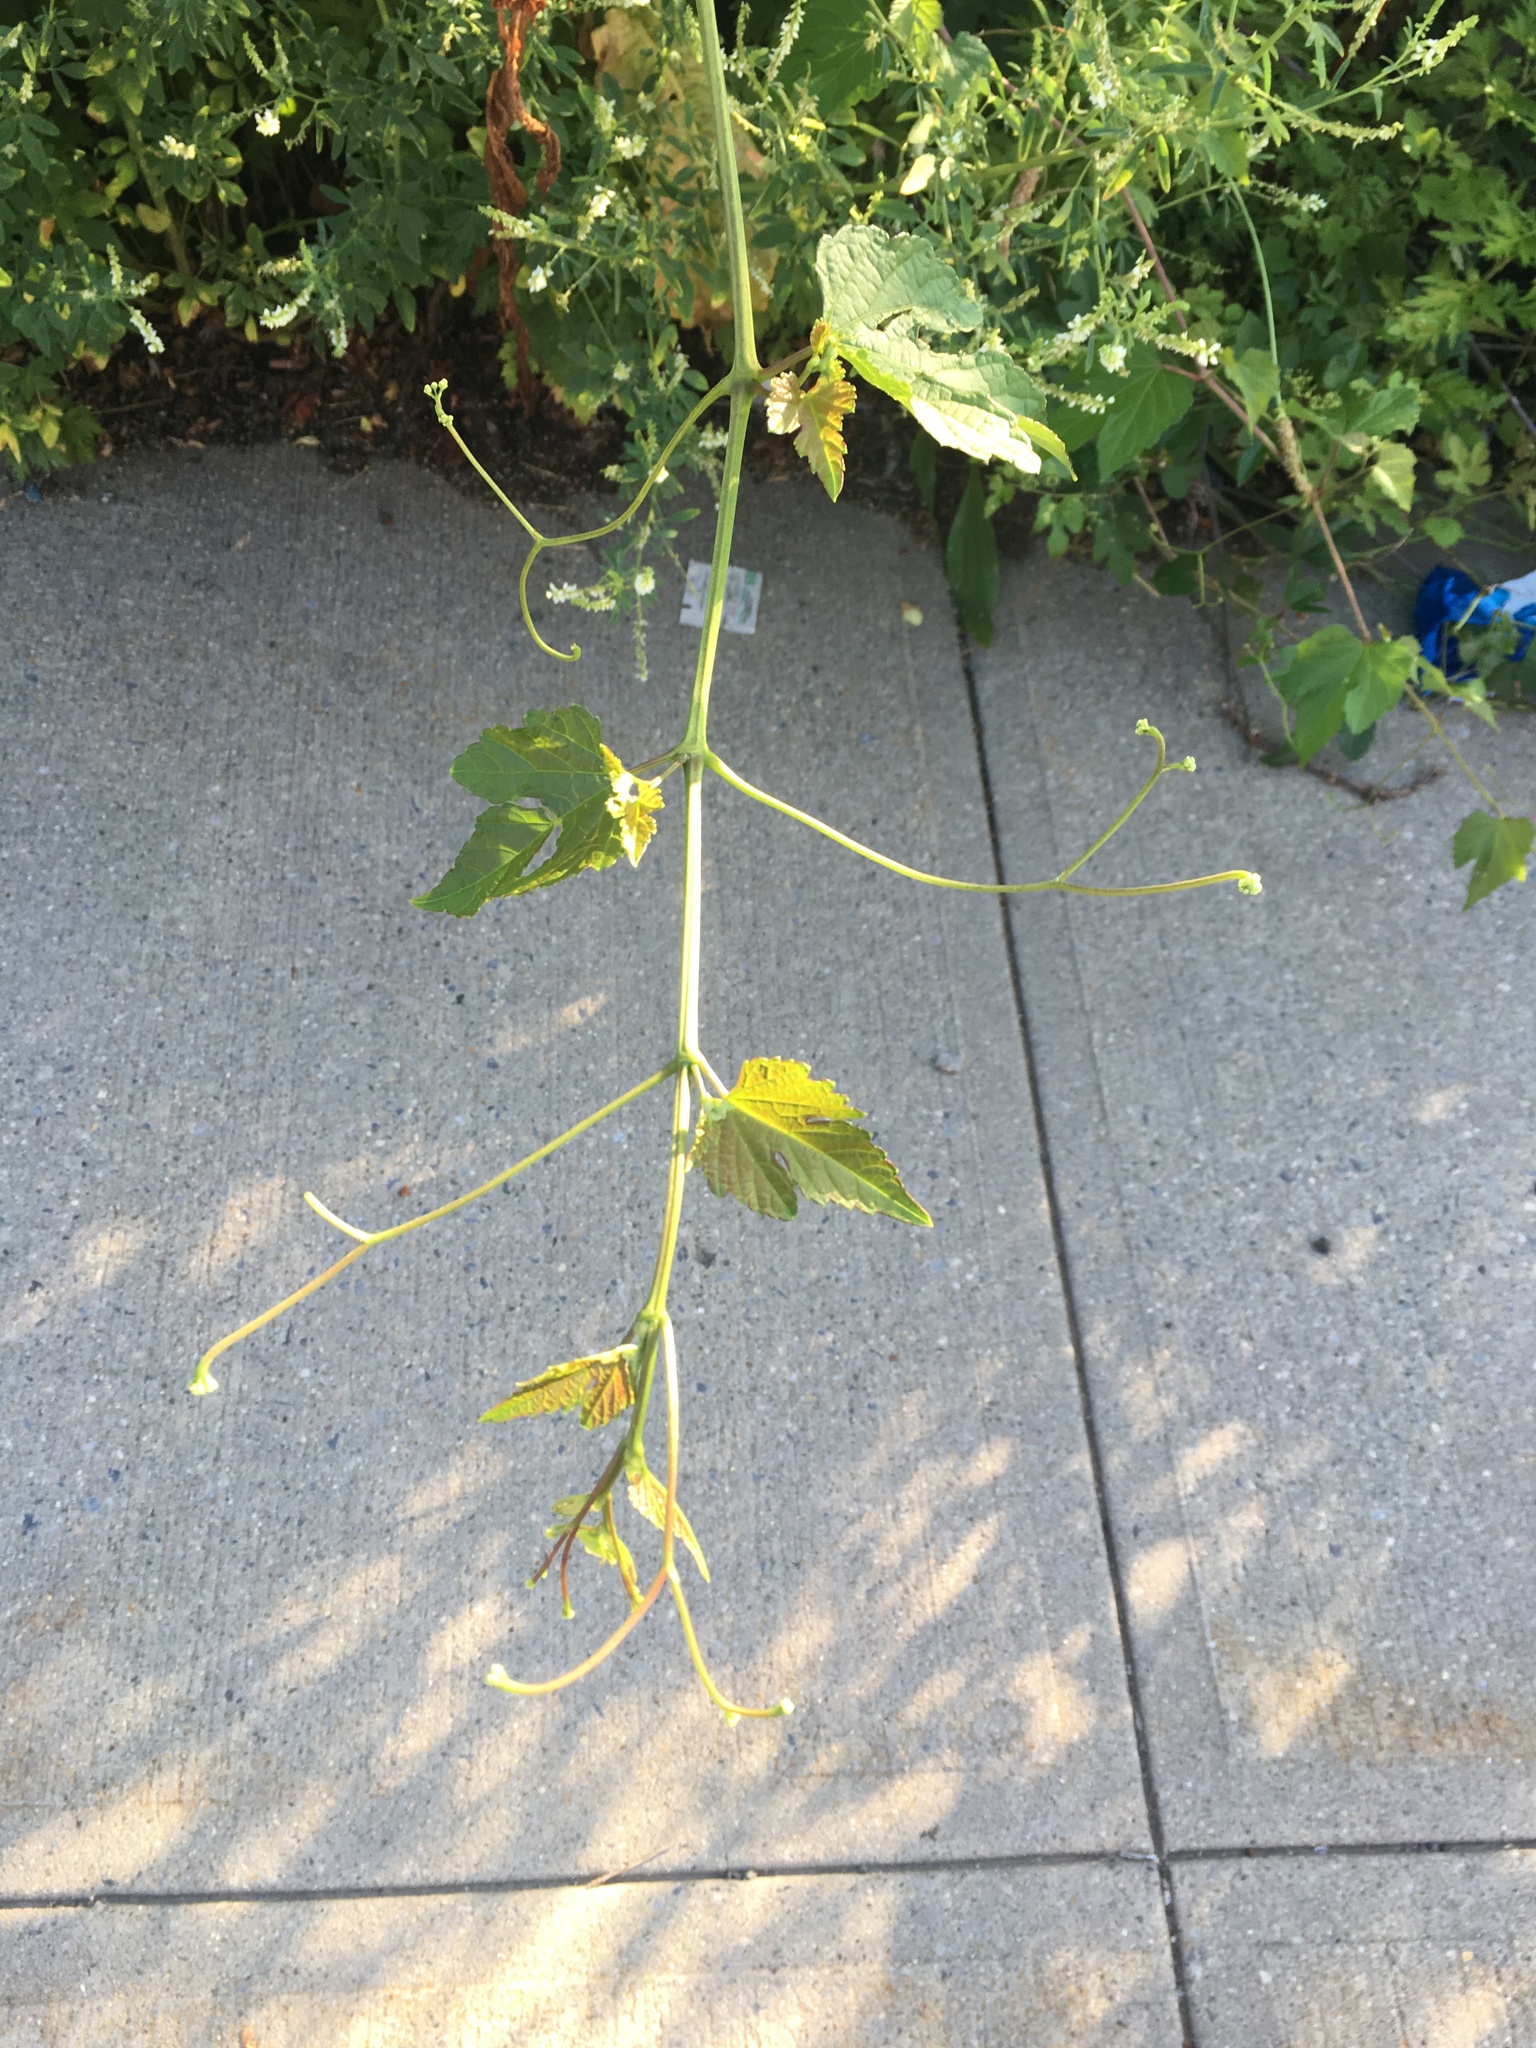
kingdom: Plantae
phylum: Tracheophyta
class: Magnoliopsida
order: Vitales
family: Vitaceae
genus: Ampelopsis
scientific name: Ampelopsis glandulosa
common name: Amur peppervine
